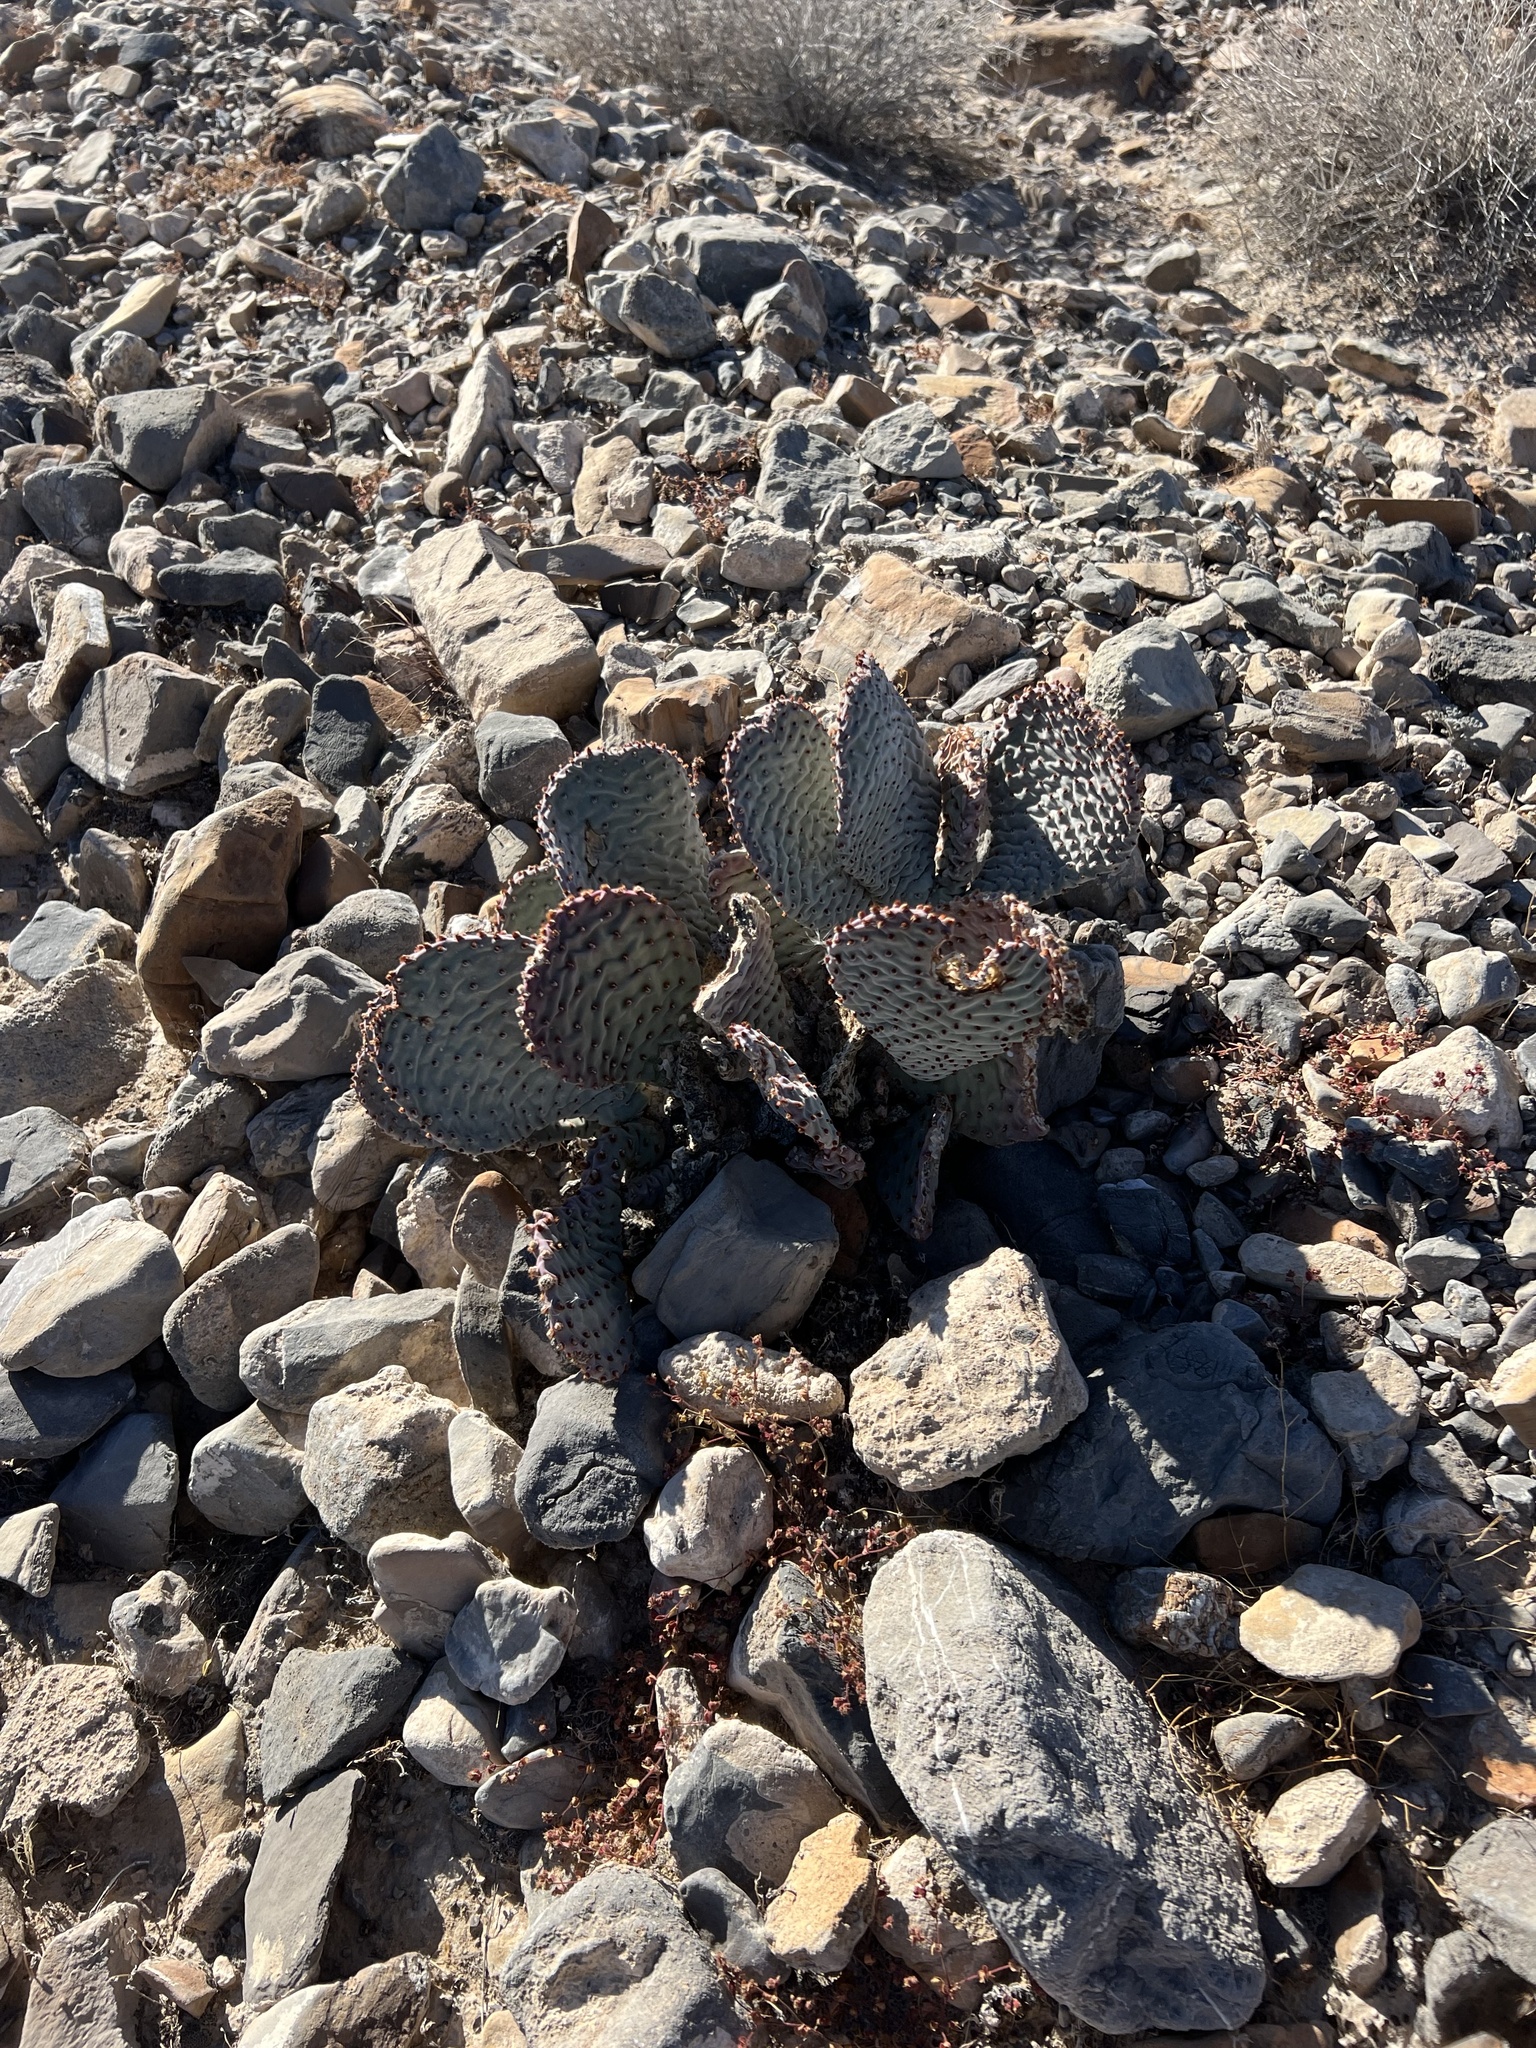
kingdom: Plantae
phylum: Tracheophyta
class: Magnoliopsida
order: Caryophyllales
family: Cactaceae
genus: Opuntia
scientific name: Opuntia basilaris
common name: Beavertail prickly-pear
